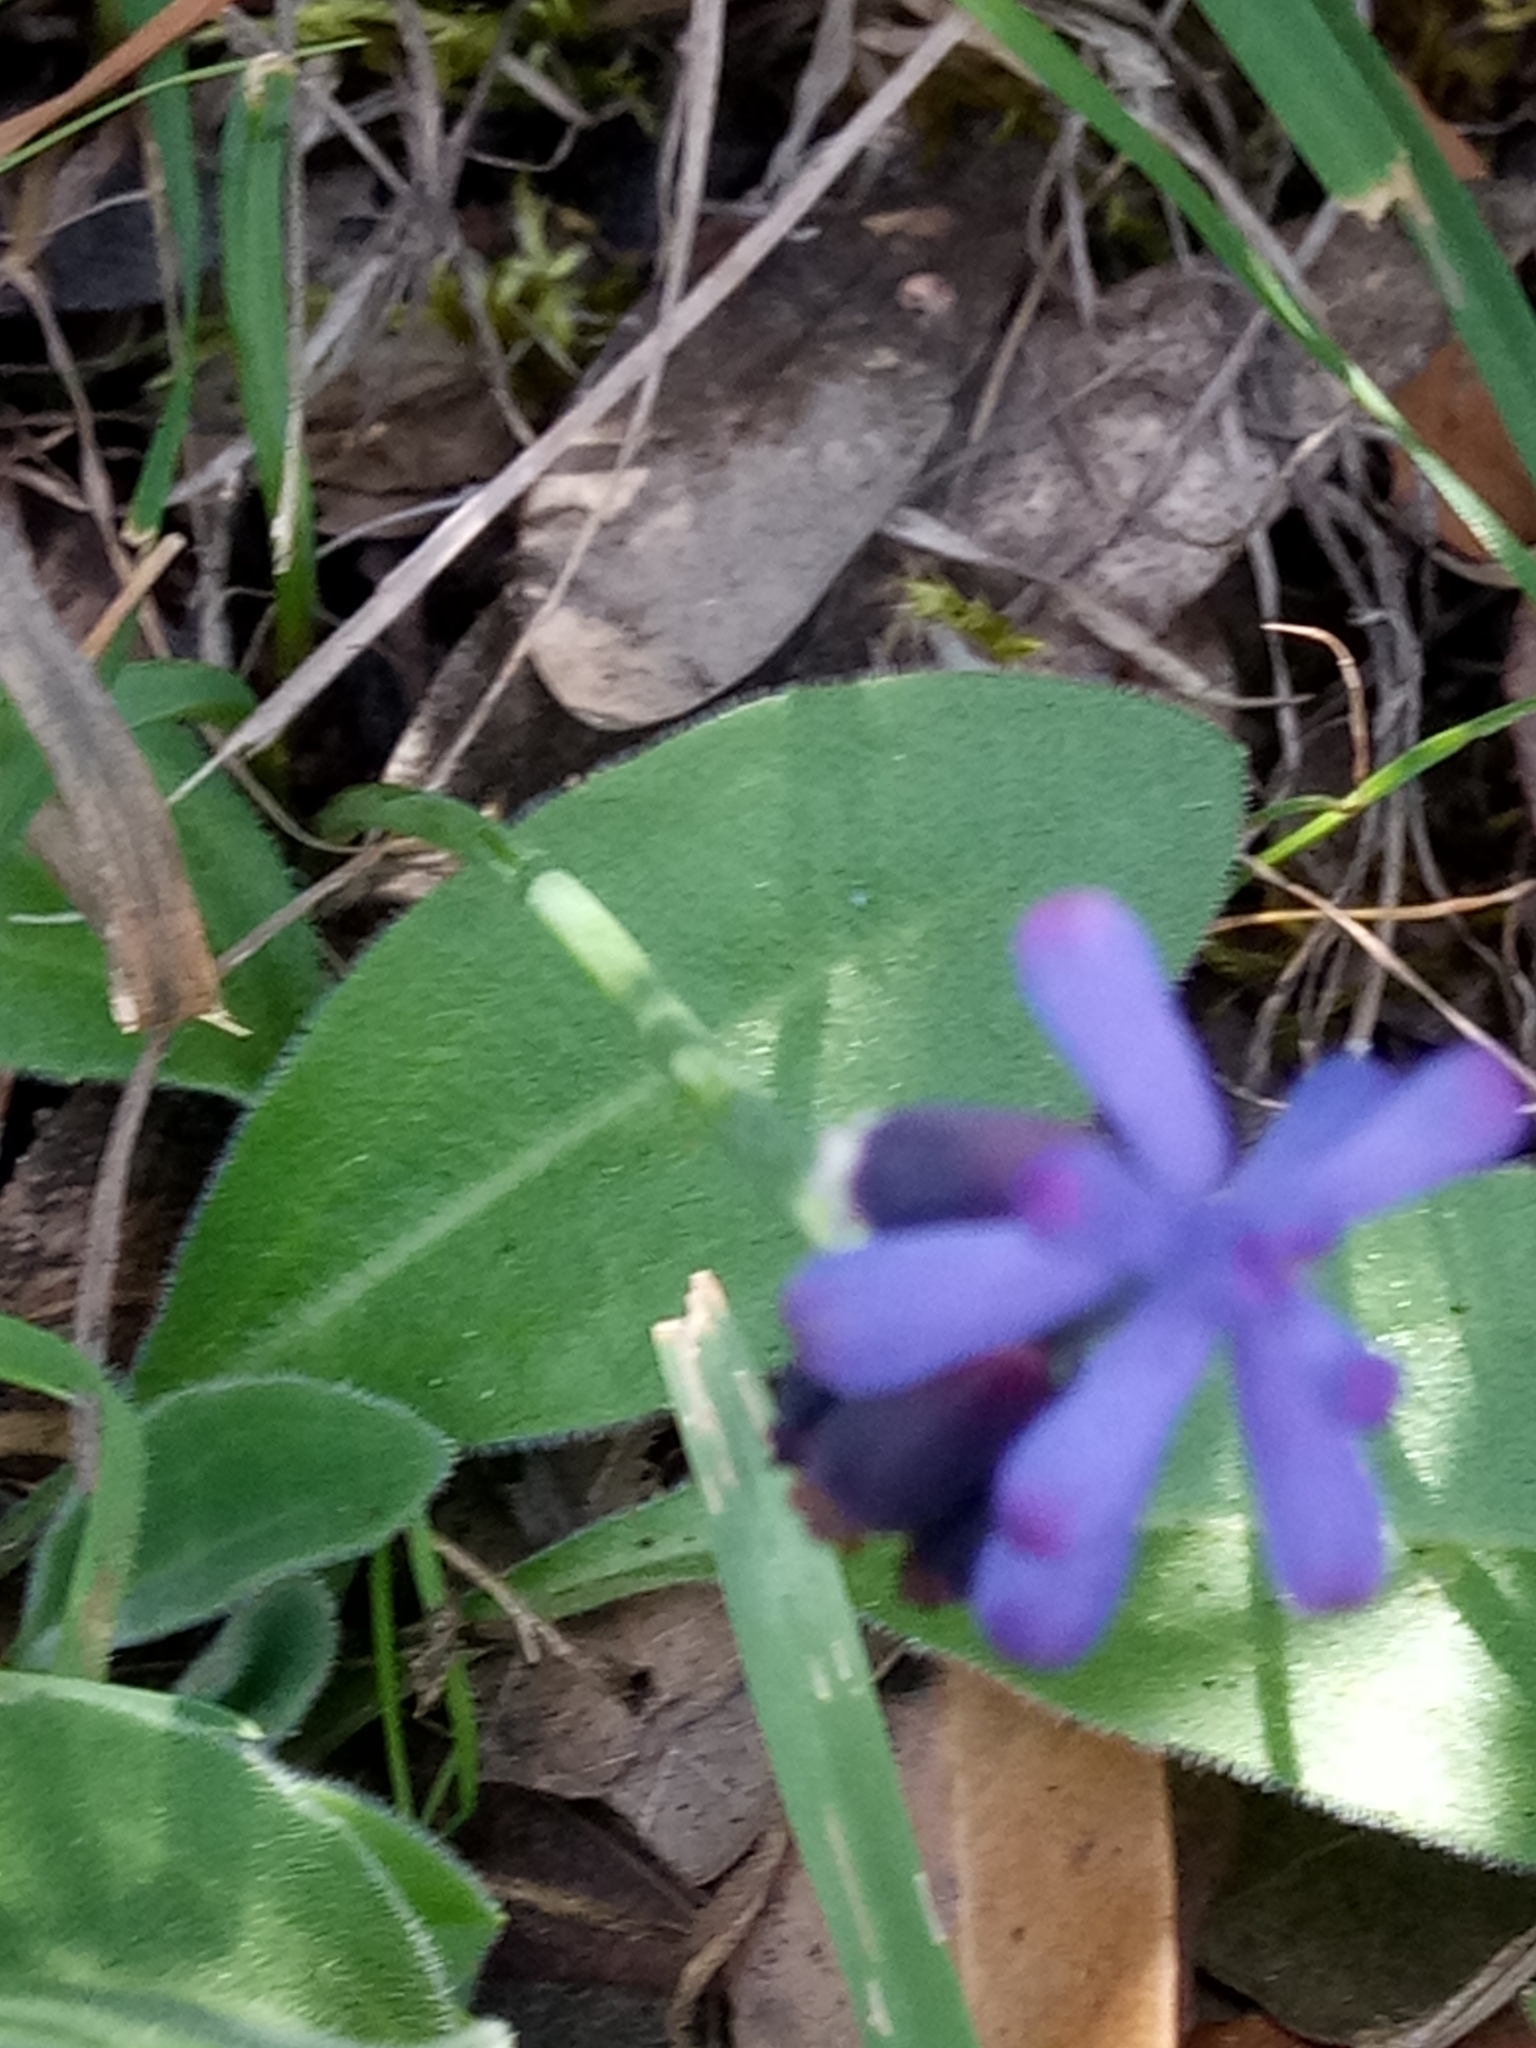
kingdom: Plantae
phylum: Tracheophyta
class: Liliopsida
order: Asparagales
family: Asparagaceae
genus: Muscari
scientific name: Muscari baeticum
